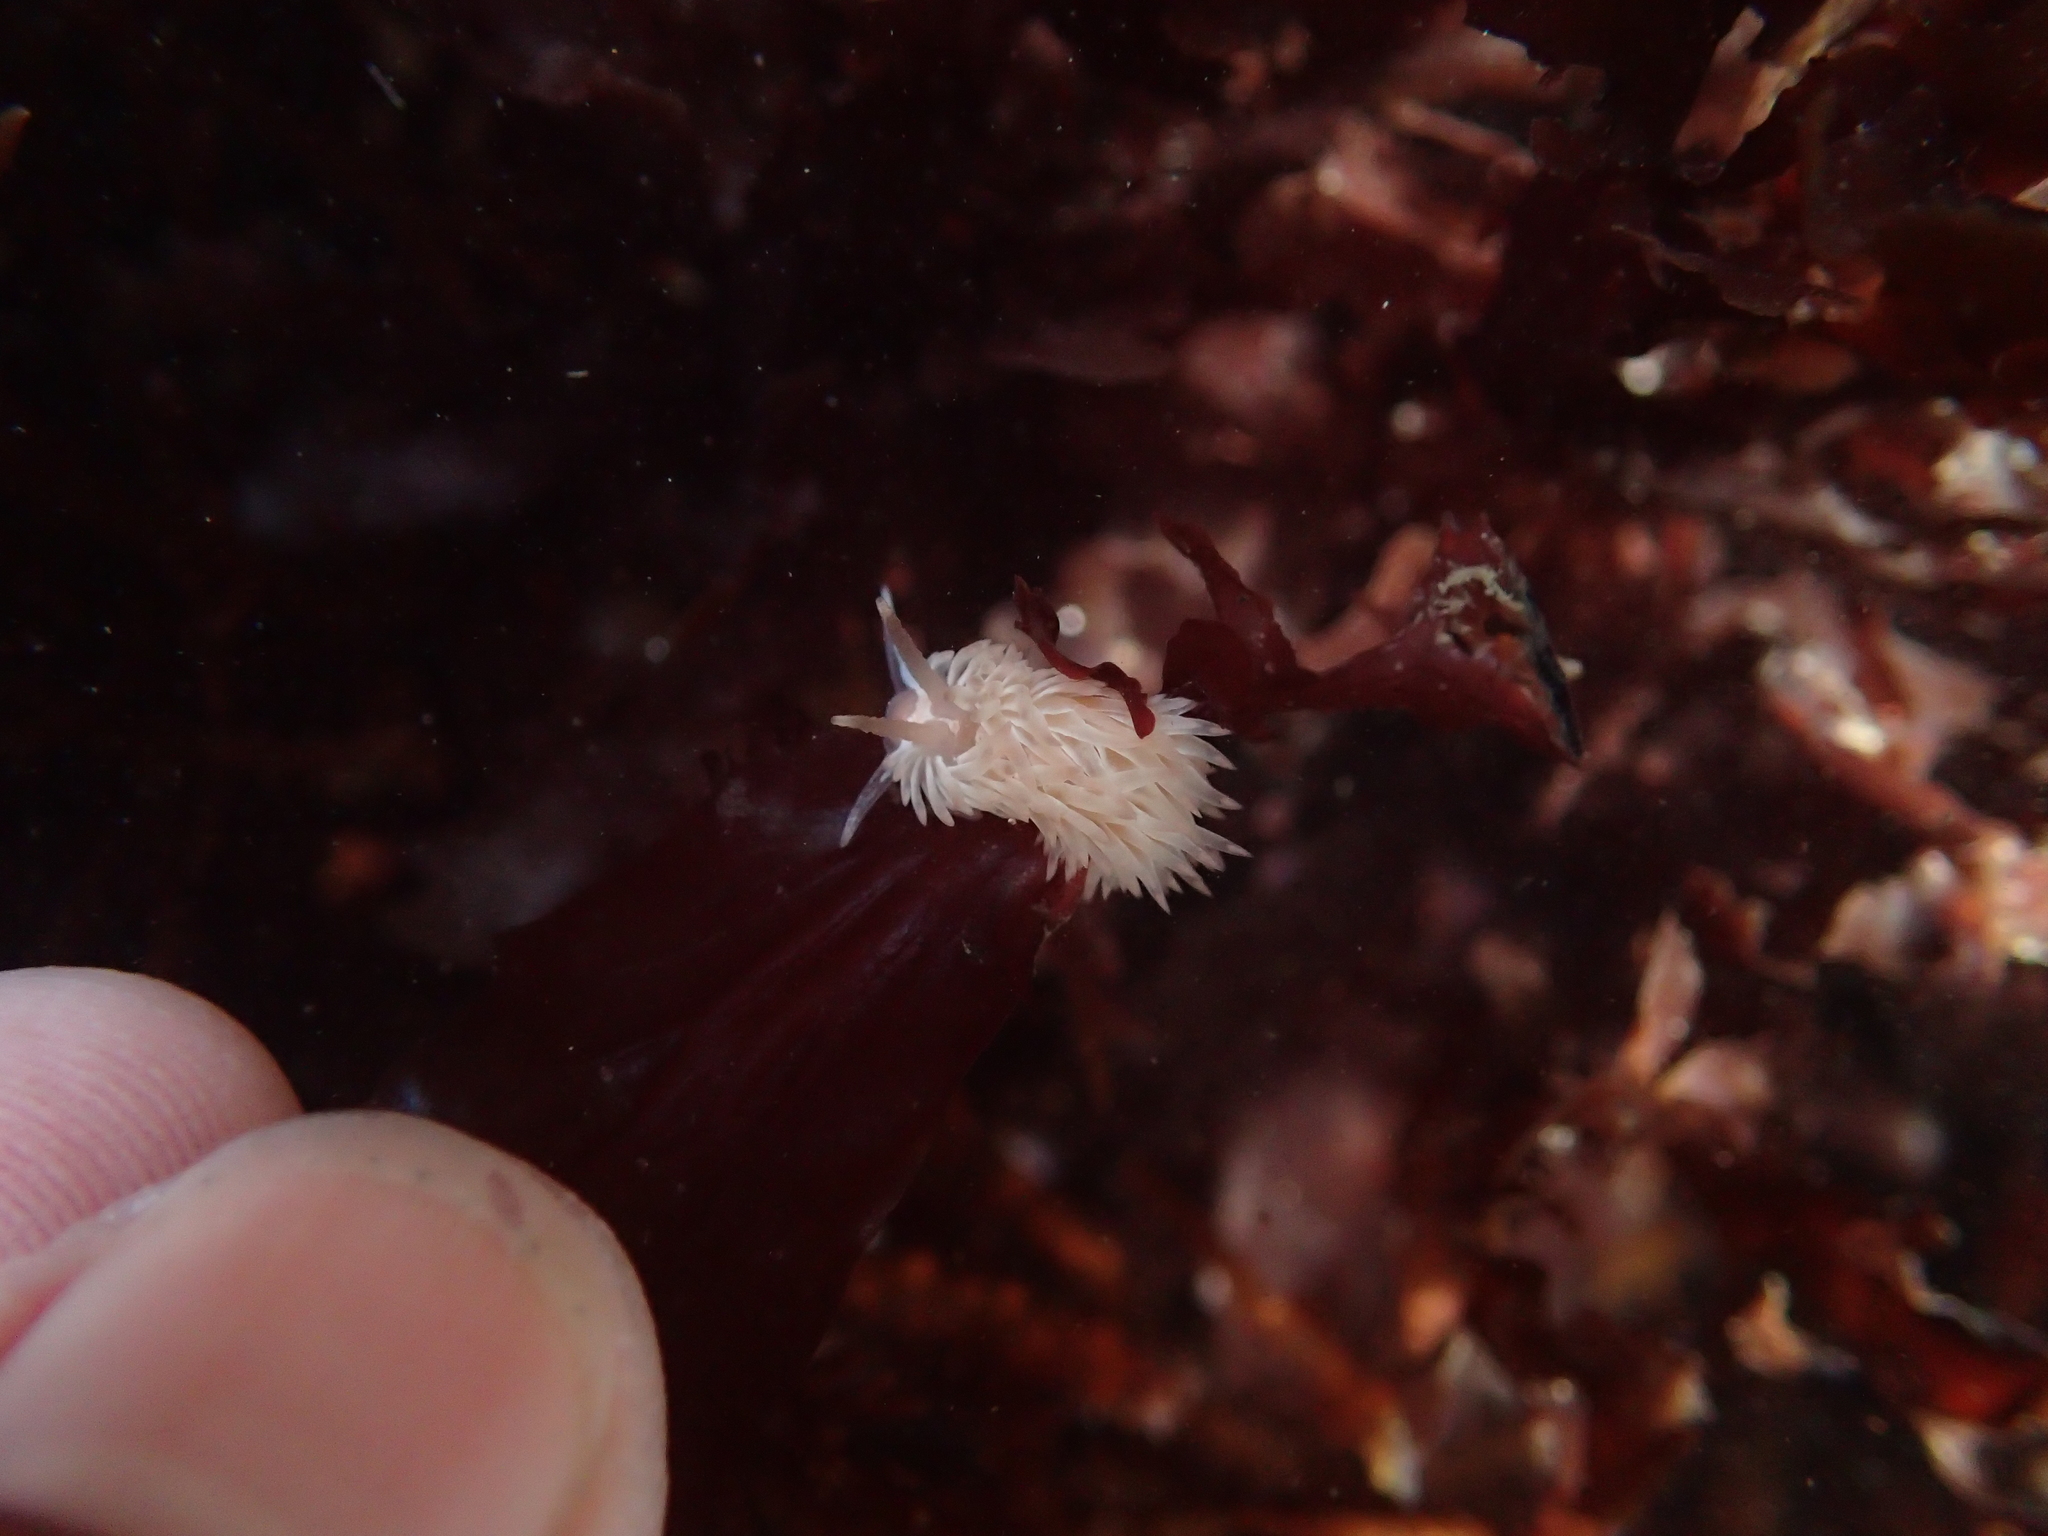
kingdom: Animalia
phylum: Mollusca
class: Gastropoda
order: Nudibranchia
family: Aeolidiidae
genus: Aeolidia
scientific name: Aeolidia loui
